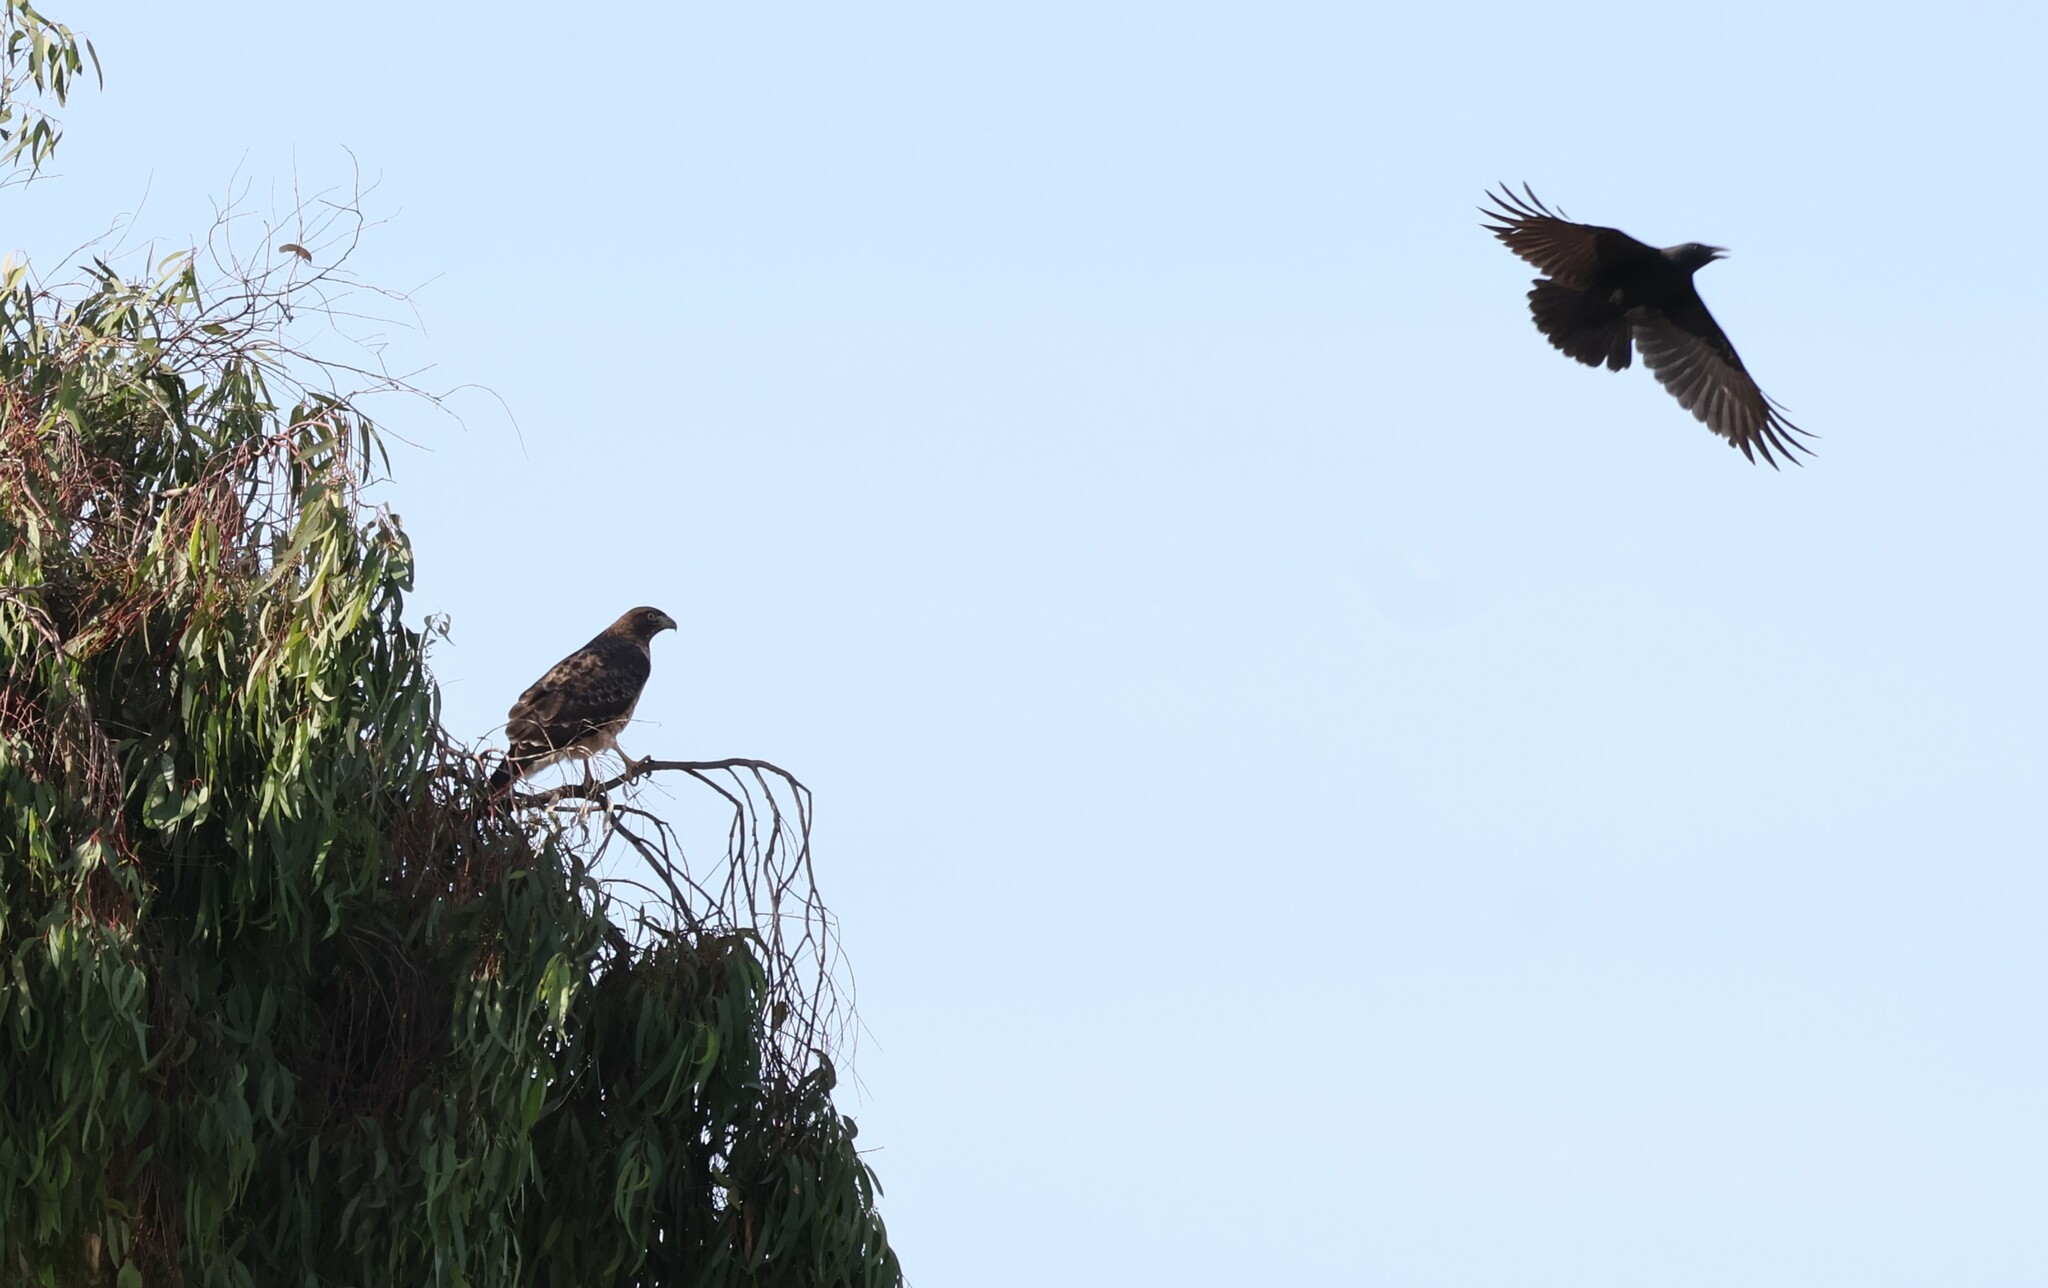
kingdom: Animalia
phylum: Chordata
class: Aves
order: Passeriformes
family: Corvidae
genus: Corvus
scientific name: Corvus brachyrhynchos
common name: American crow
